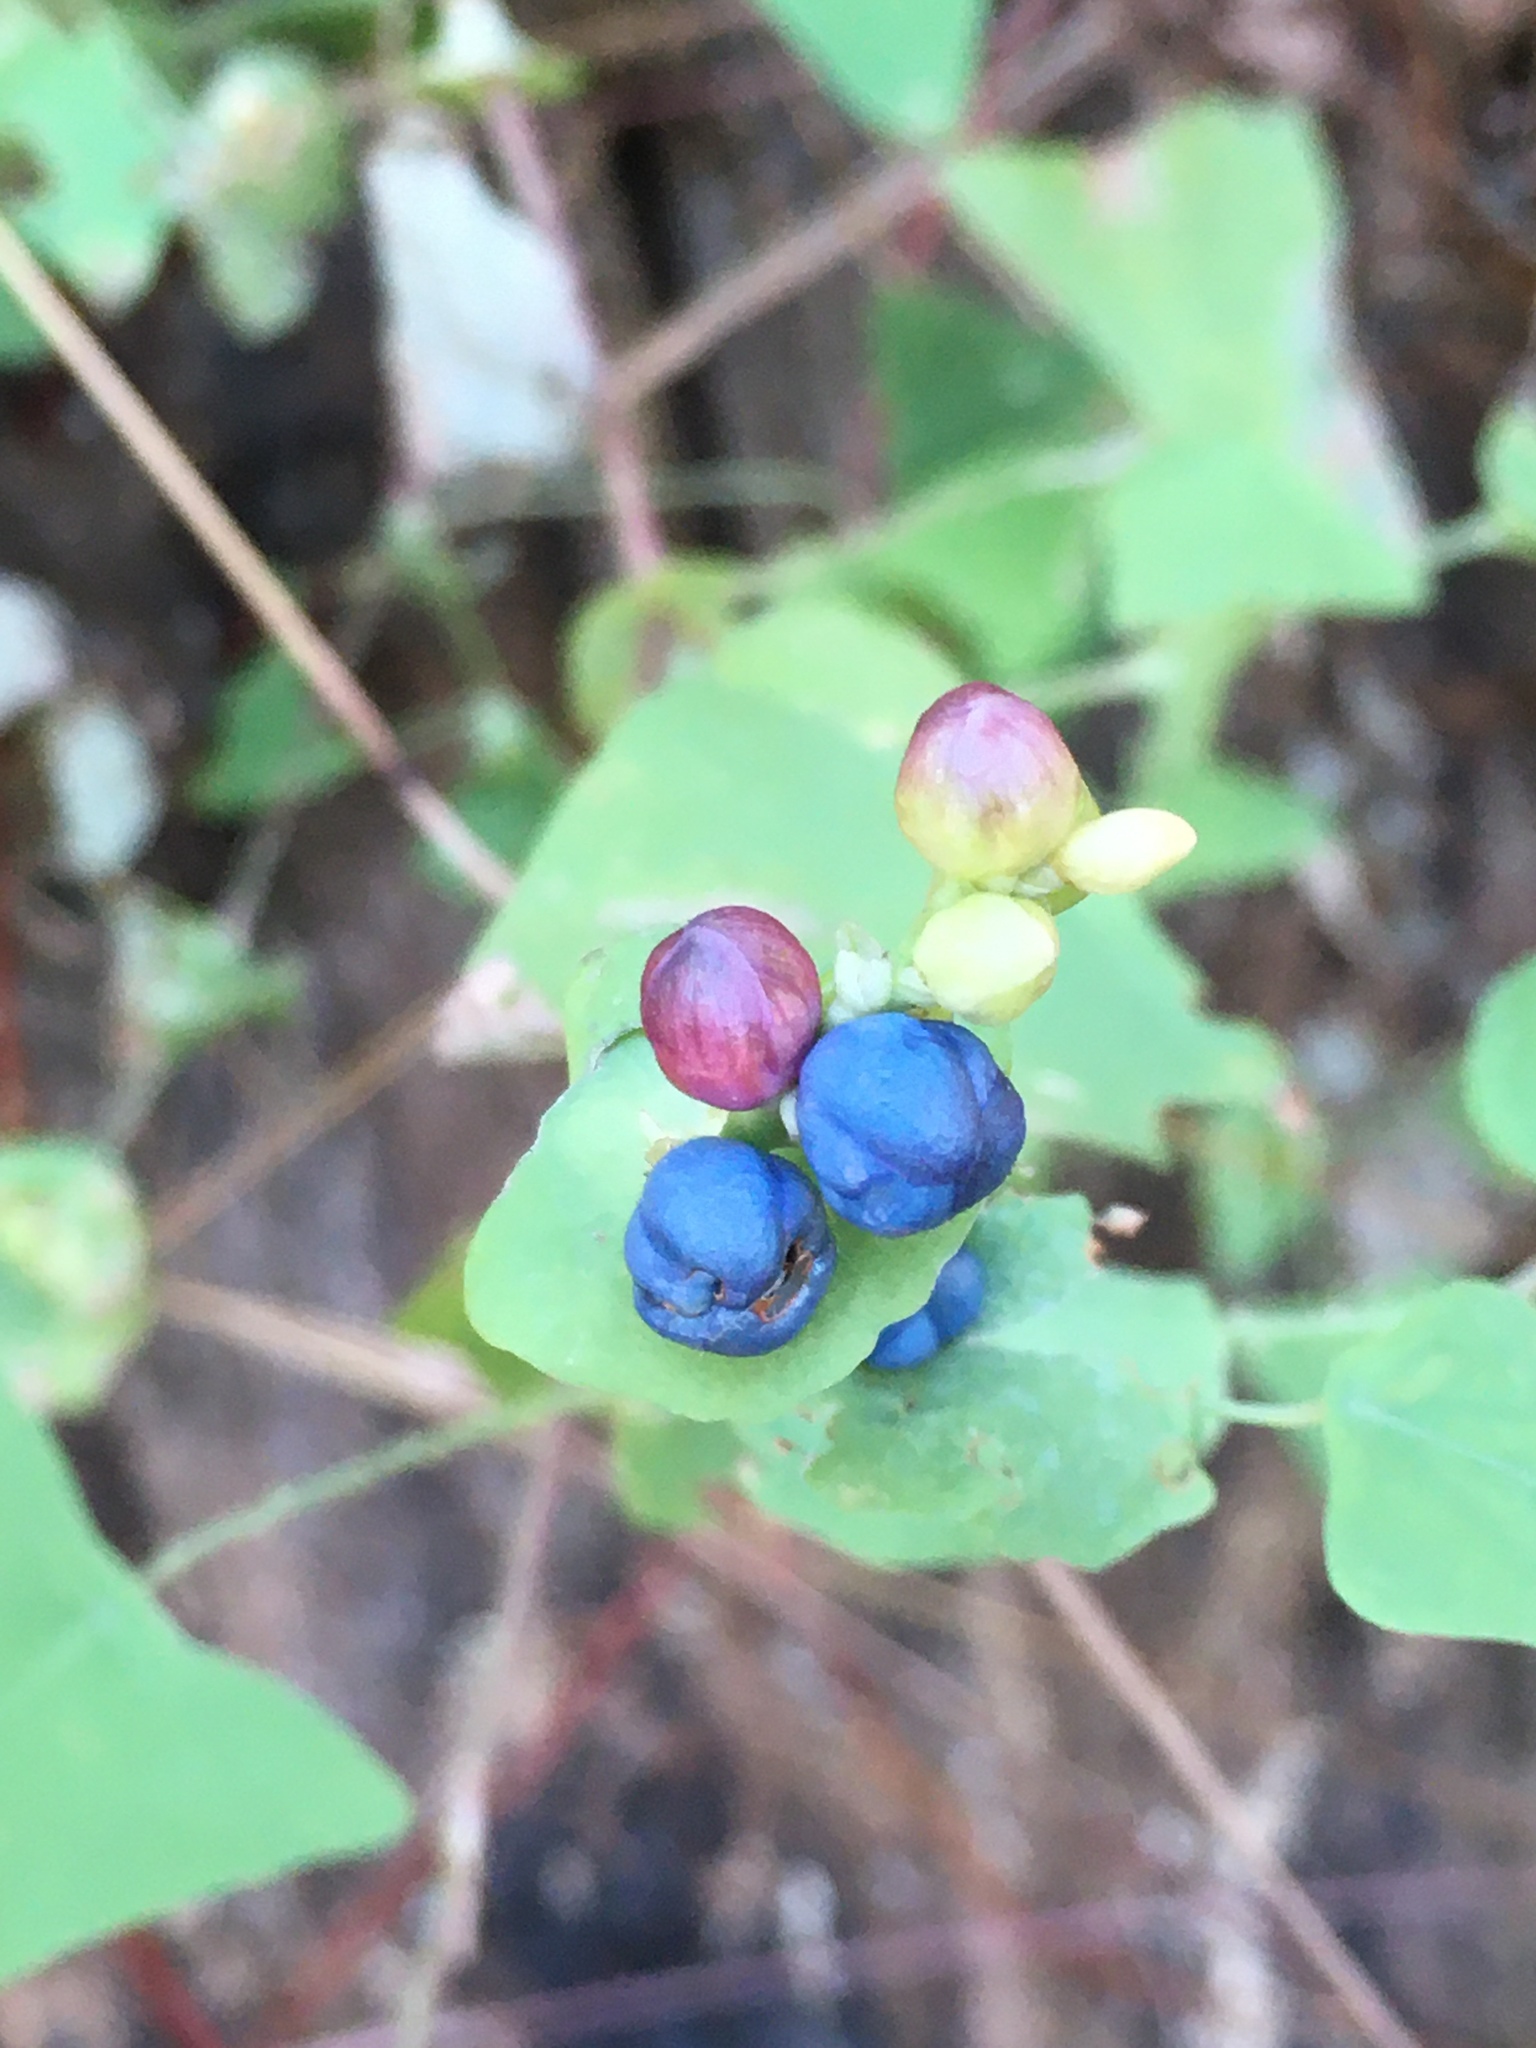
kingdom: Plantae
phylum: Tracheophyta
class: Magnoliopsida
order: Caryophyllales
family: Polygonaceae
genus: Persicaria
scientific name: Persicaria perfoliata
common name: Asiatic tearthumb
